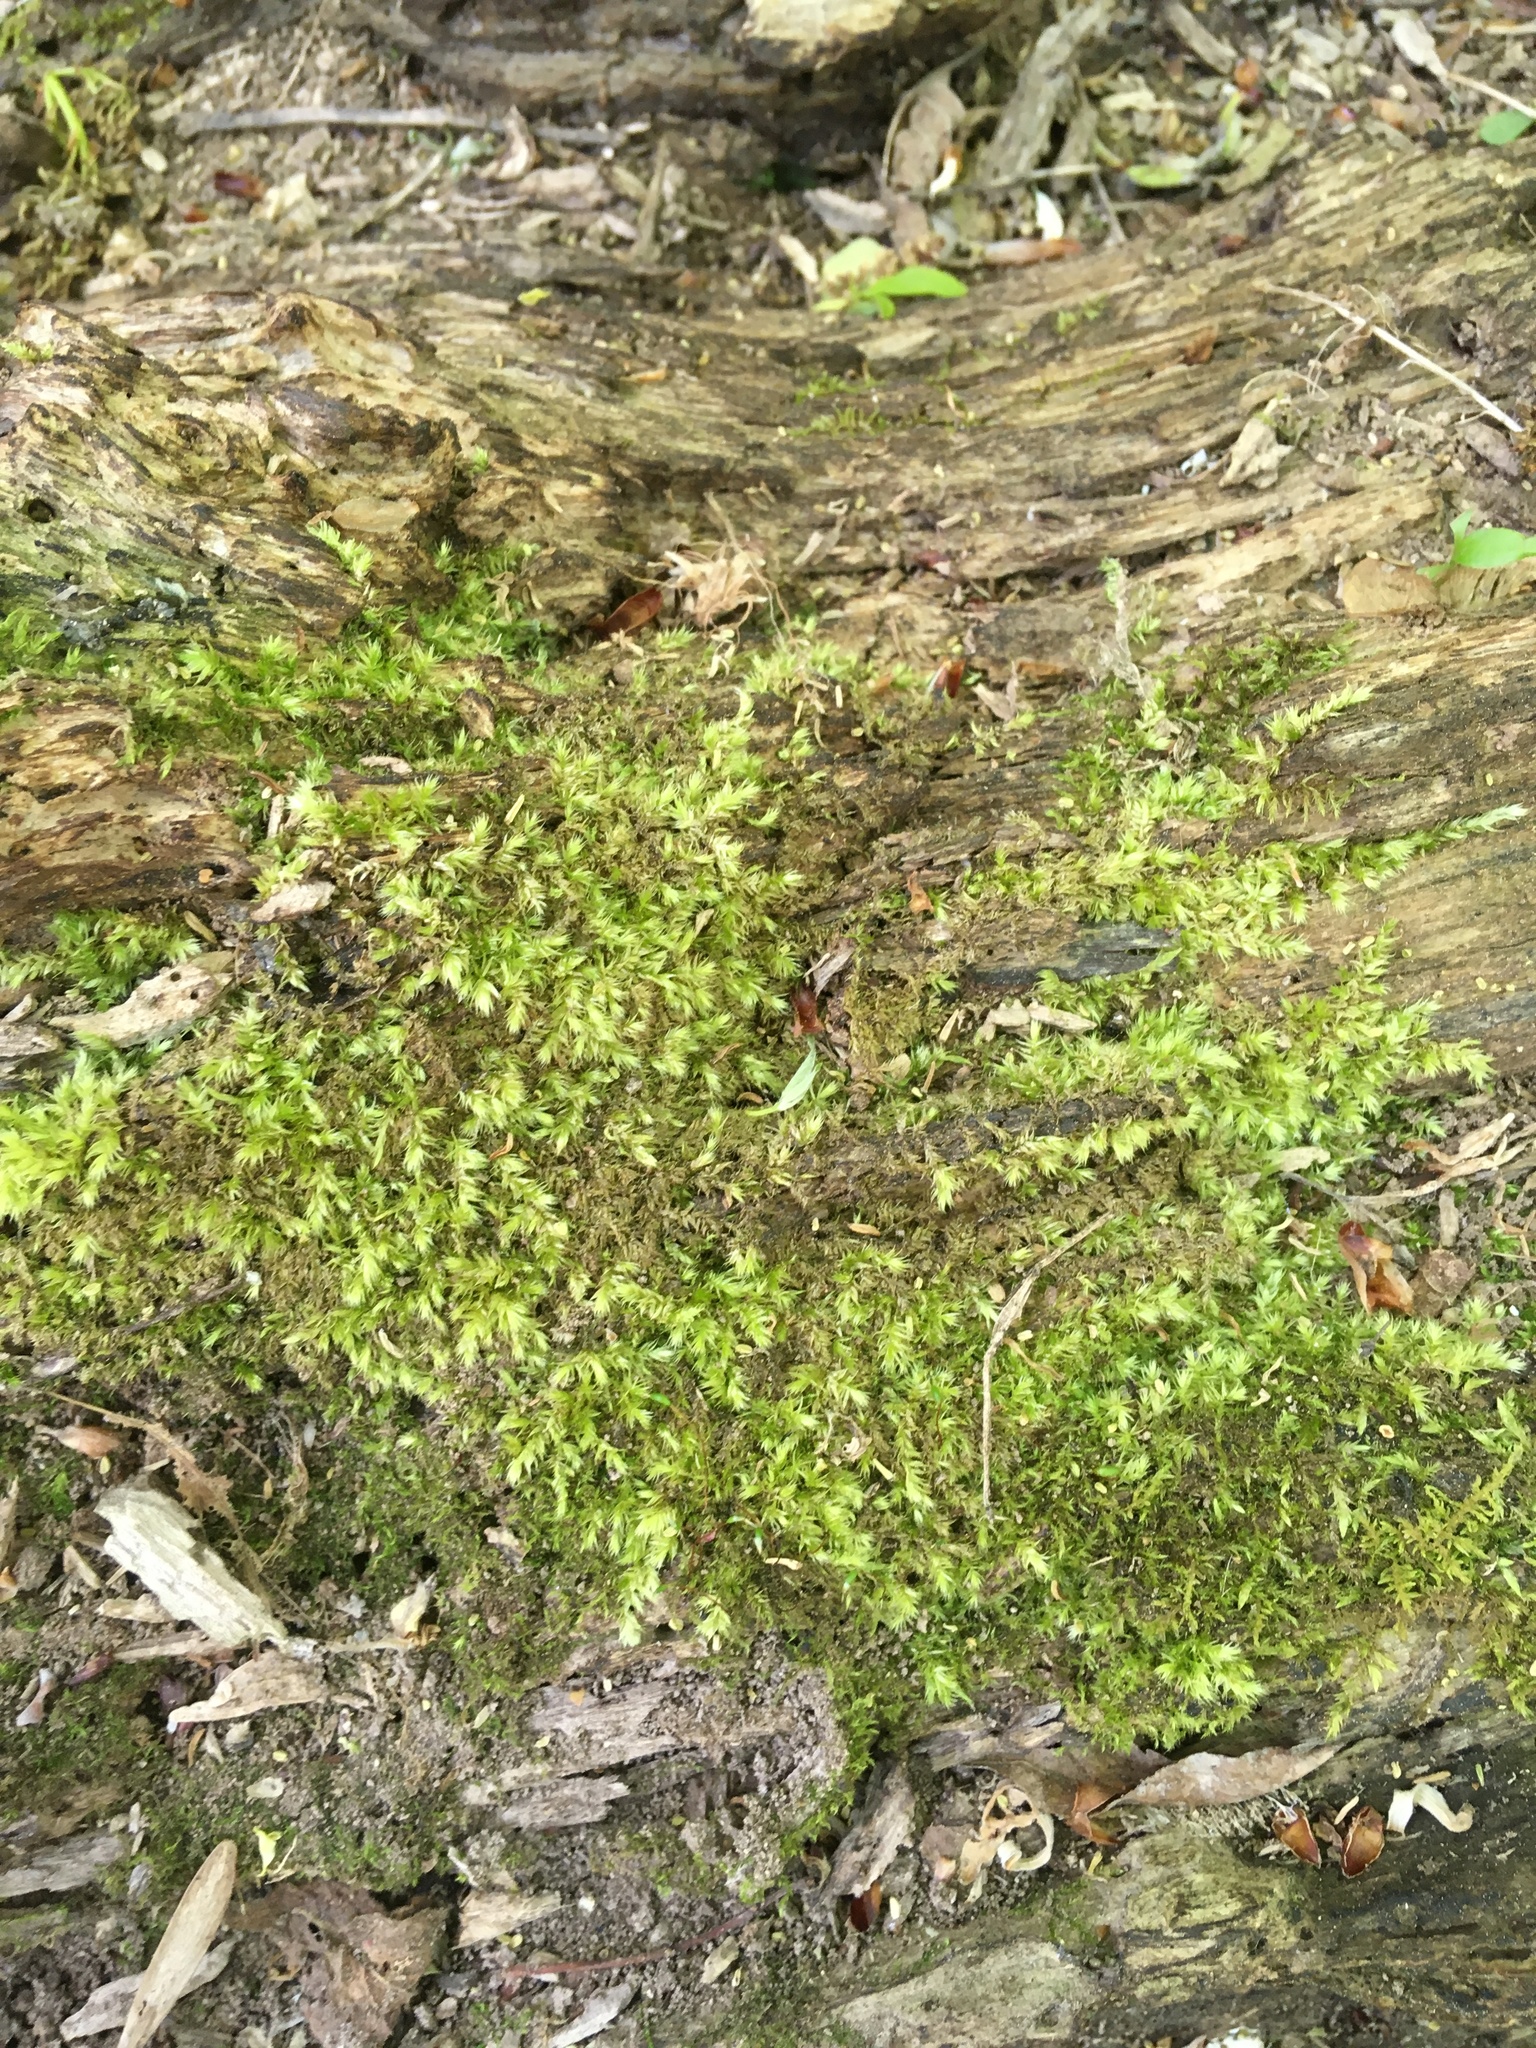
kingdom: Plantae
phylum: Bryophyta
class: Bryopsida
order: Hypnales
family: Entodontaceae
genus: Entodon
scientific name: Entodon seductrix
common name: Round-stemmed entodon moss
